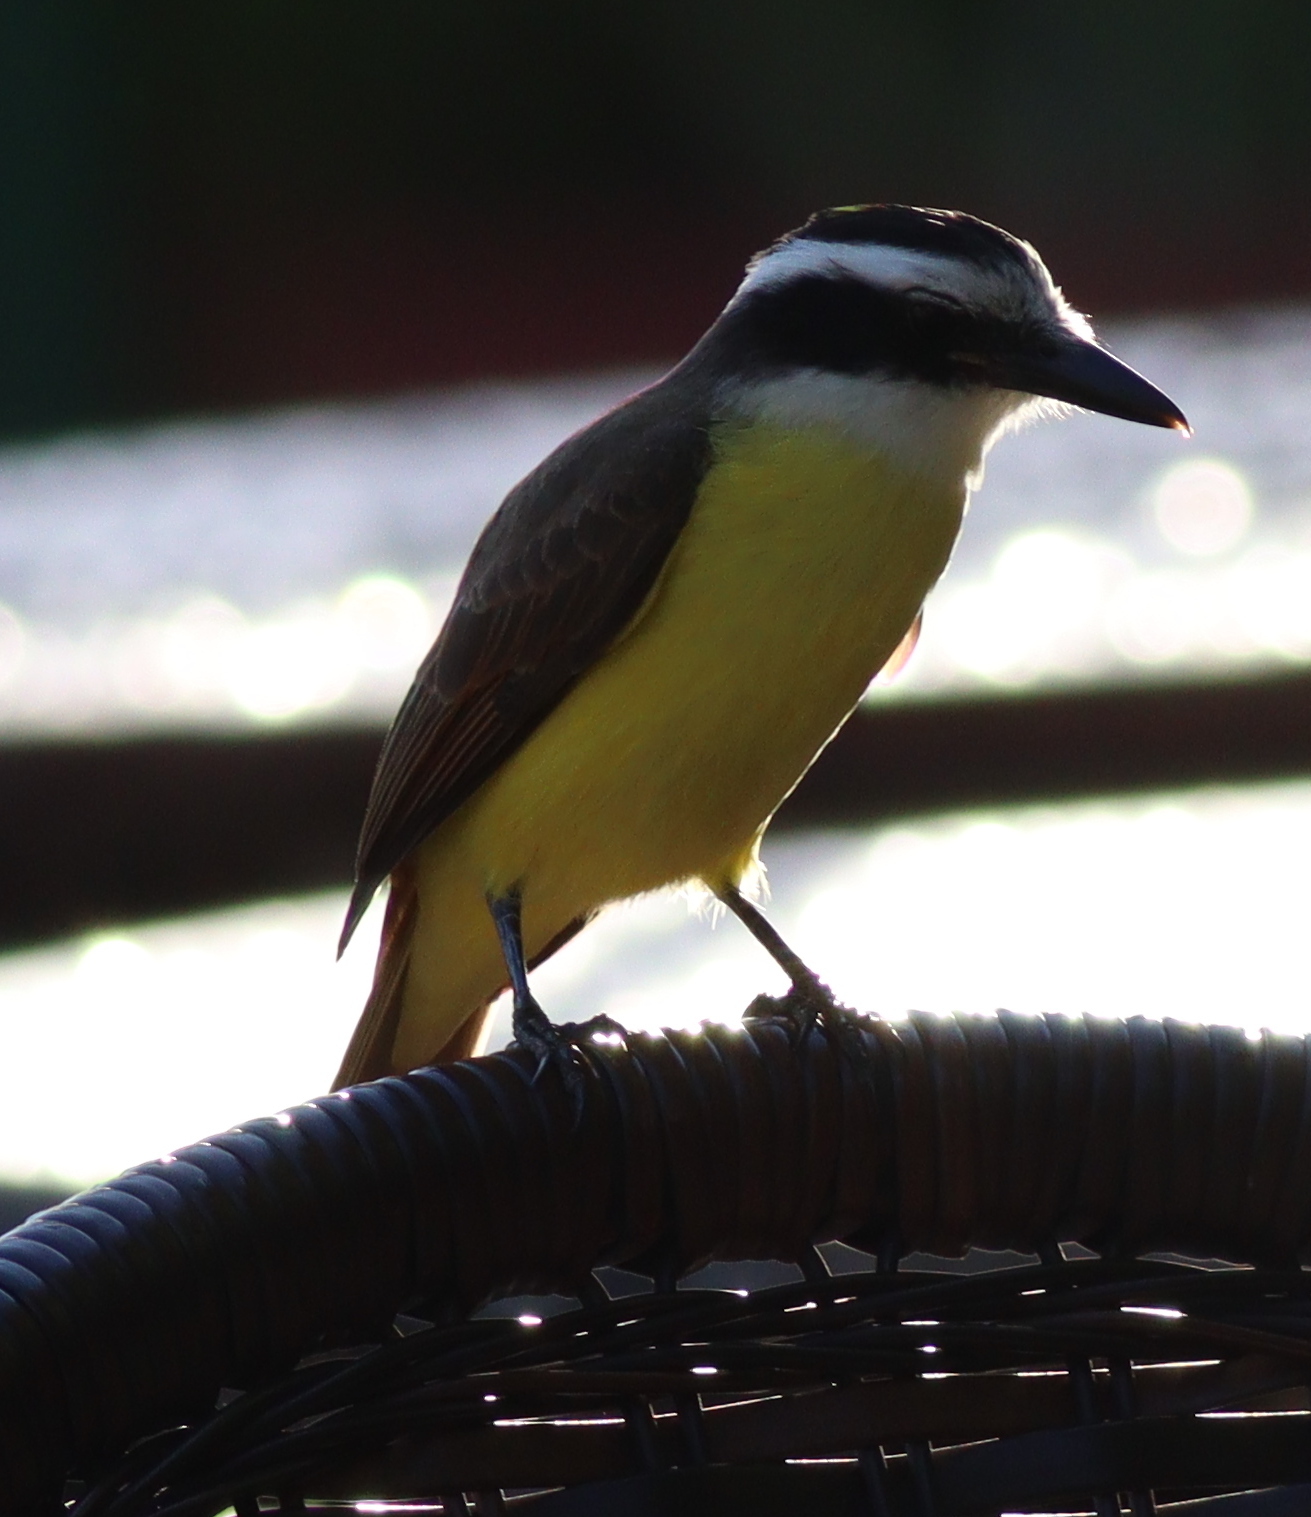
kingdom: Animalia
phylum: Chordata
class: Aves
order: Passeriformes
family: Tyrannidae
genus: Pitangus
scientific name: Pitangus sulphuratus
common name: Great kiskadee
